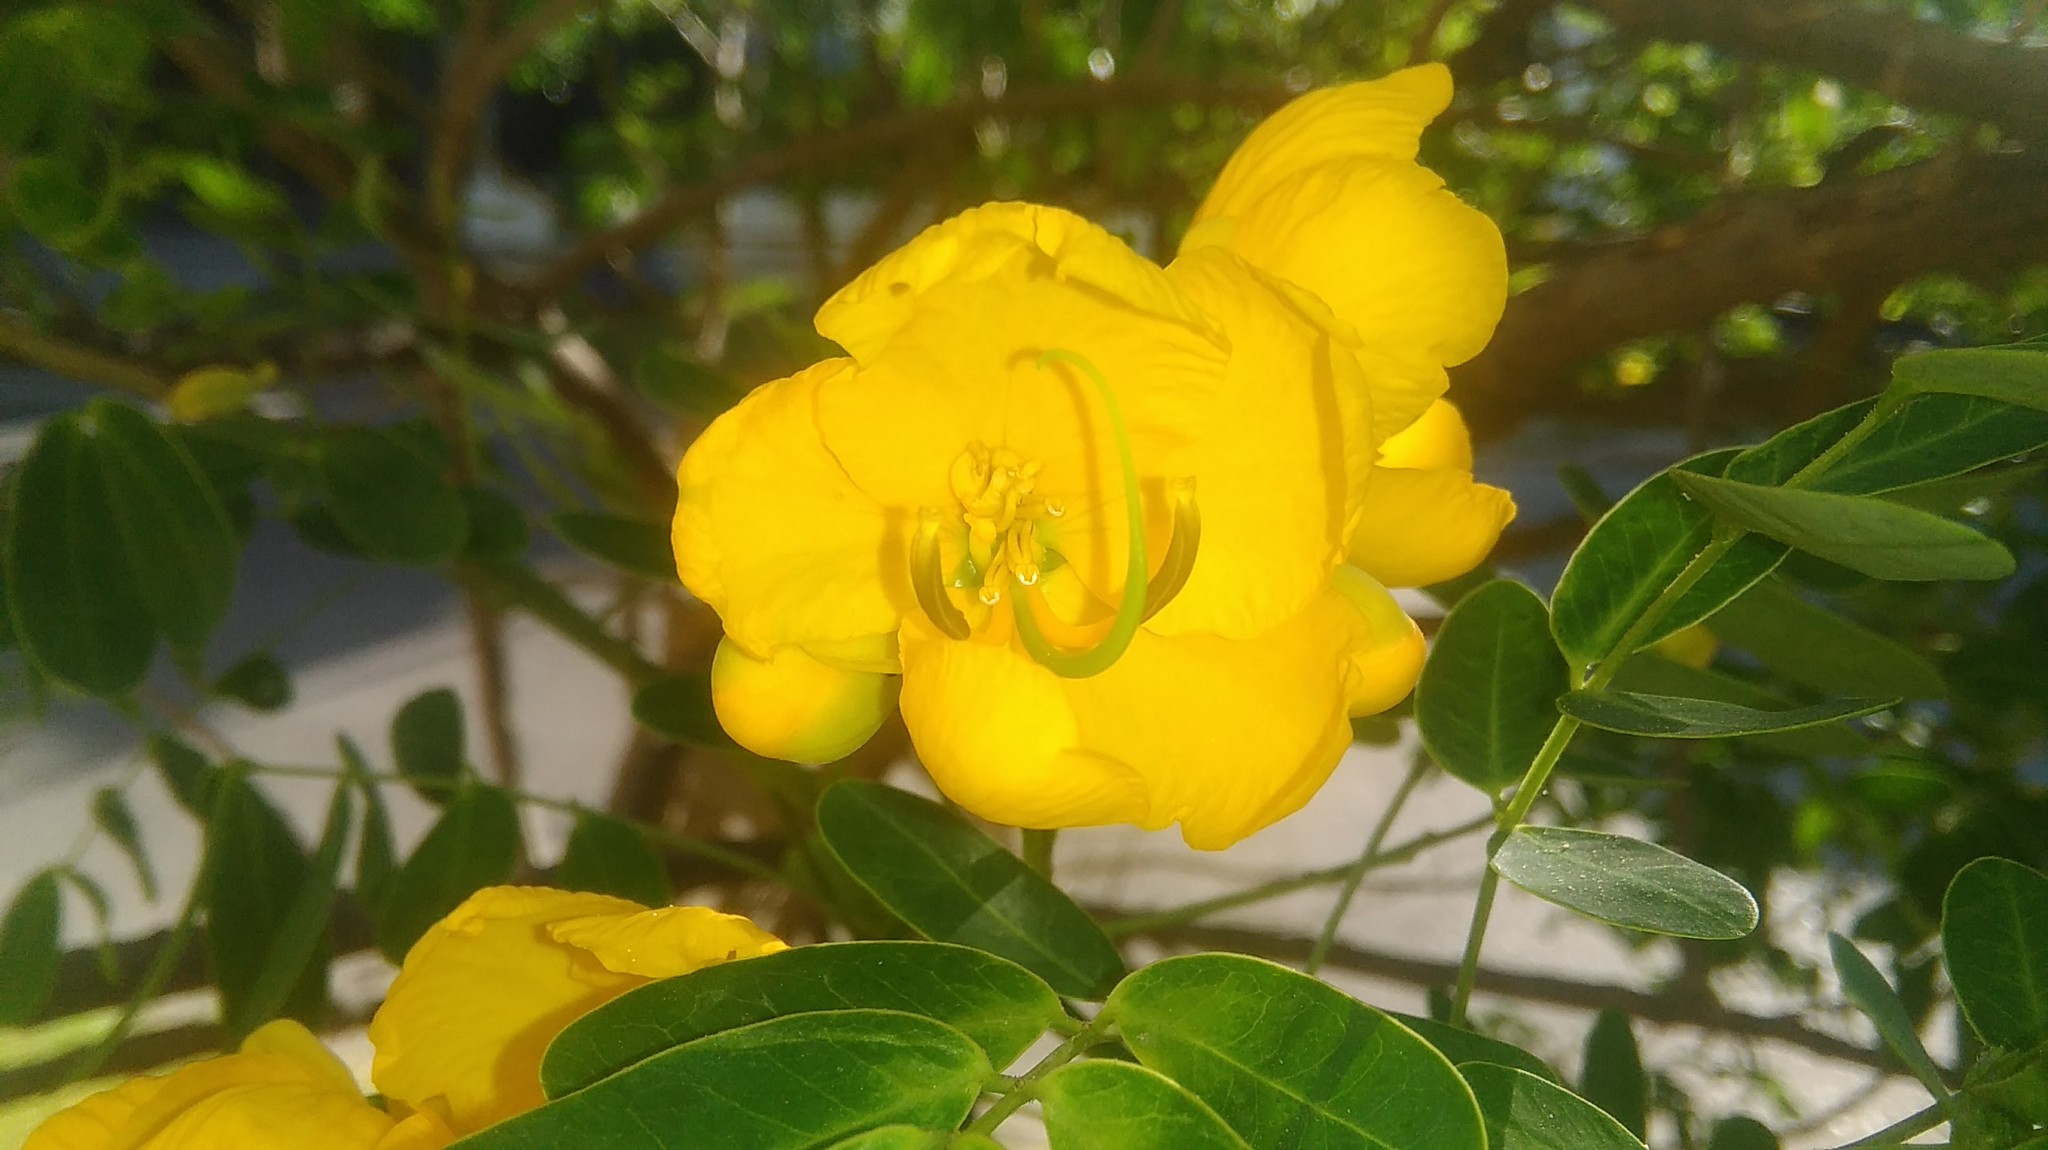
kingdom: Plantae
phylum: Tracheophyta
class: Magnoliopsida
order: Fabales
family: Fabaceae
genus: Senna
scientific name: Senna pendula
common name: Easter cassia
